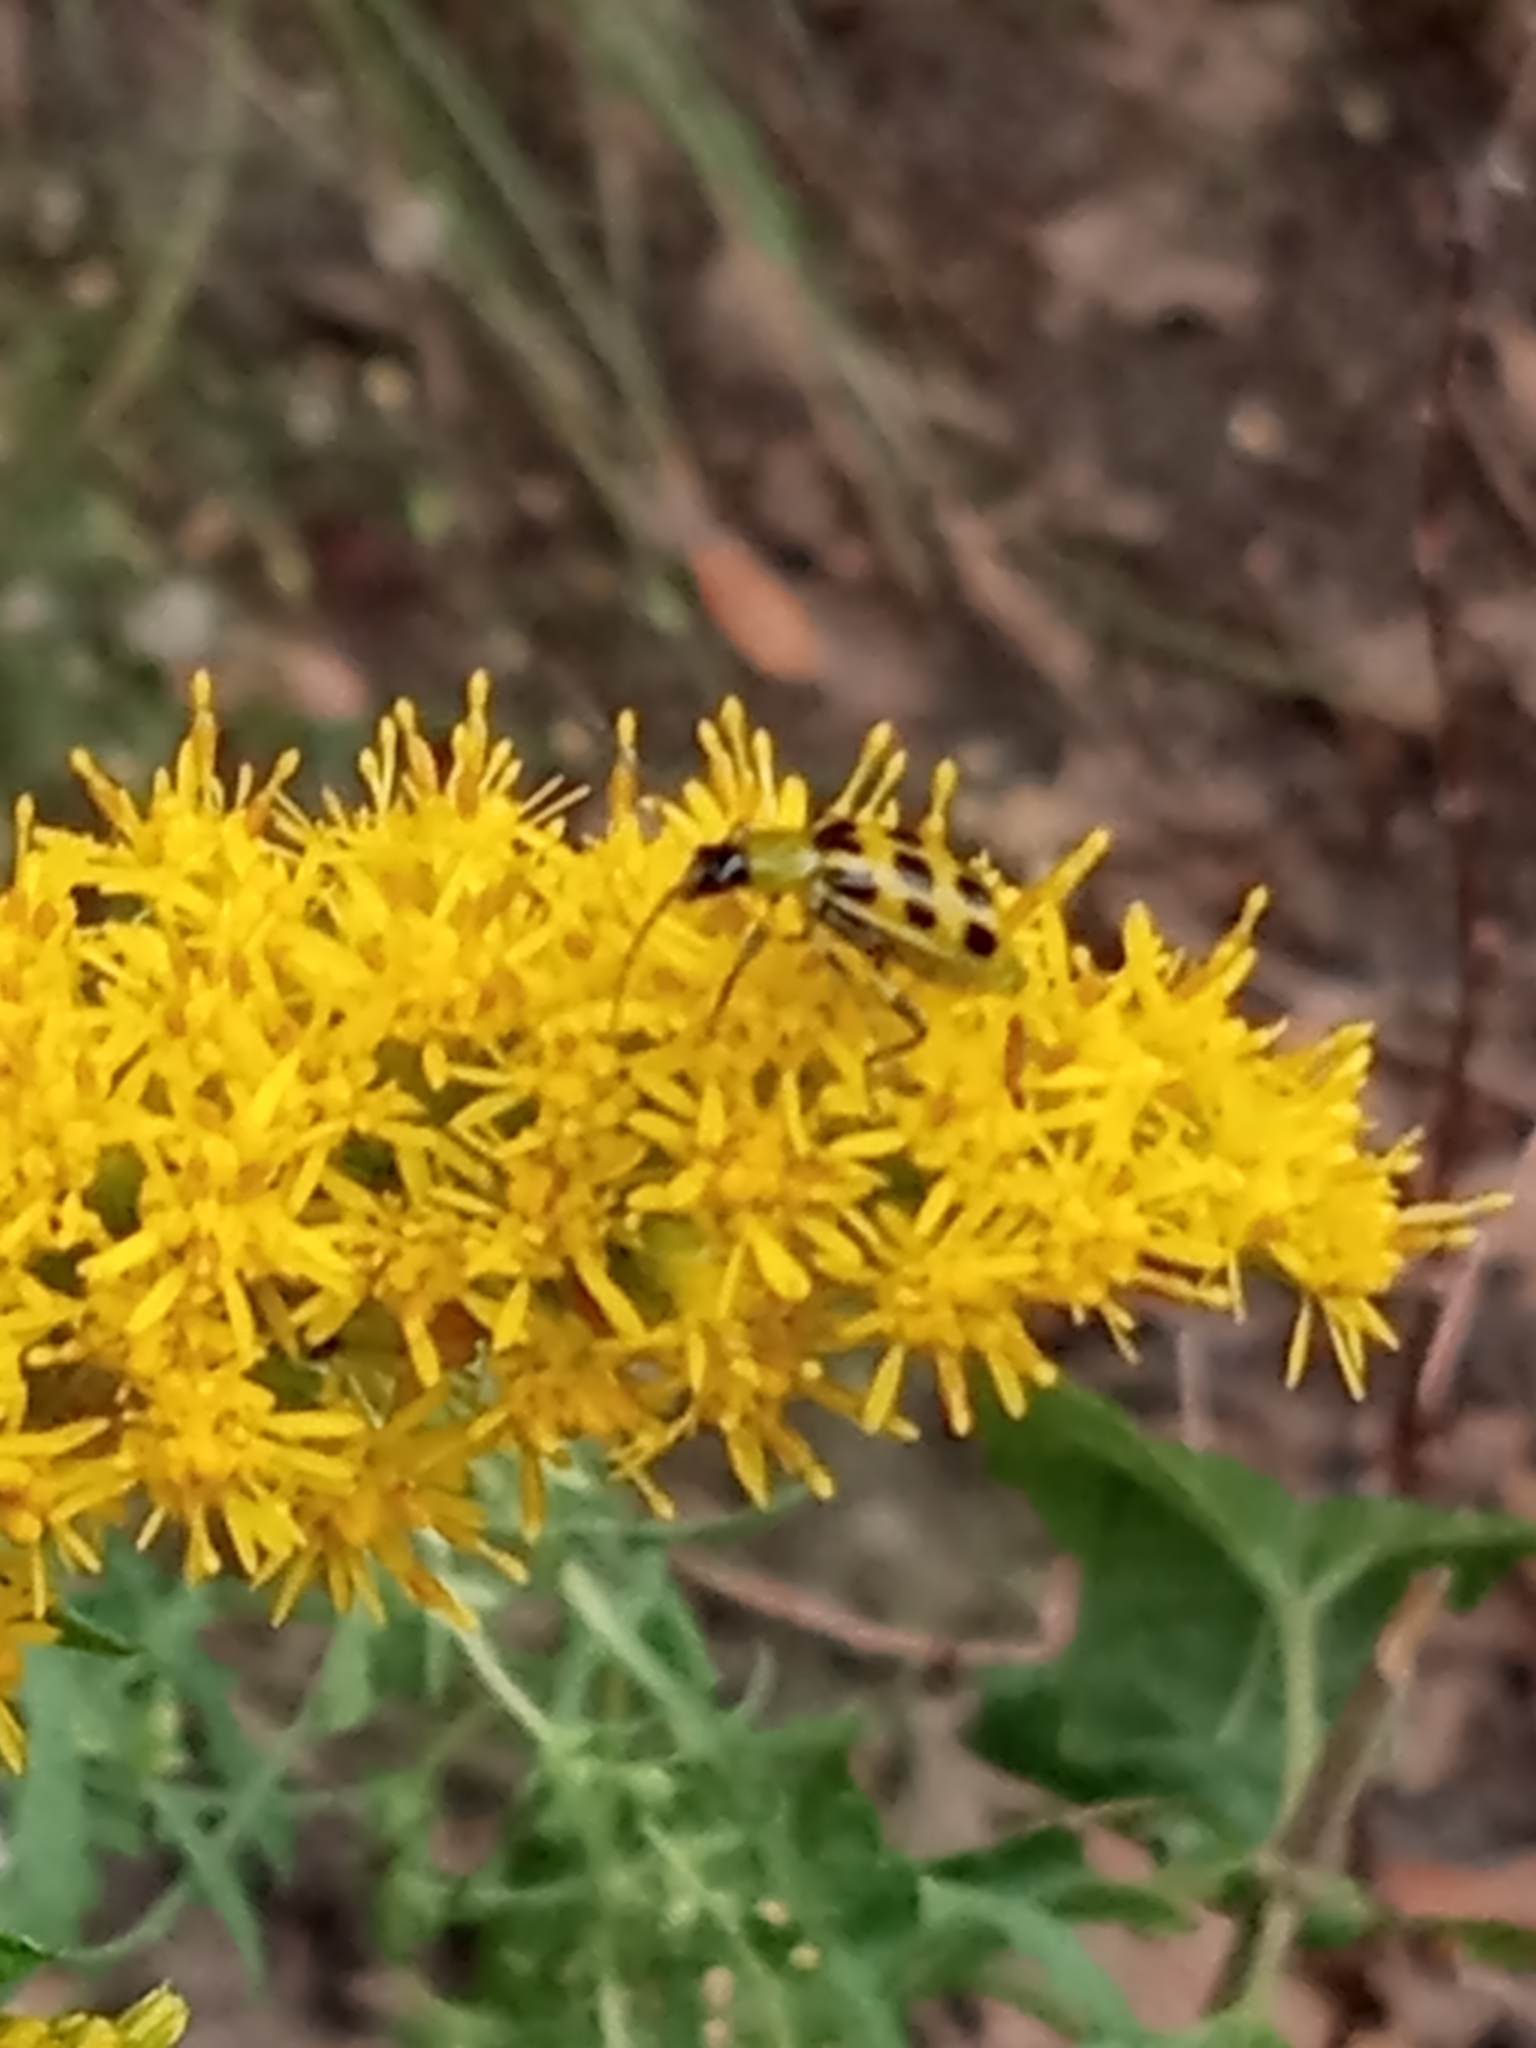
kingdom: Animalia
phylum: Arthropoda
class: Insecta
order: Coleoptera
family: Chrysomelidae
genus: Diabrotica
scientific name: Diabrotica undecimpunctata
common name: Spotted cucumber beetle
